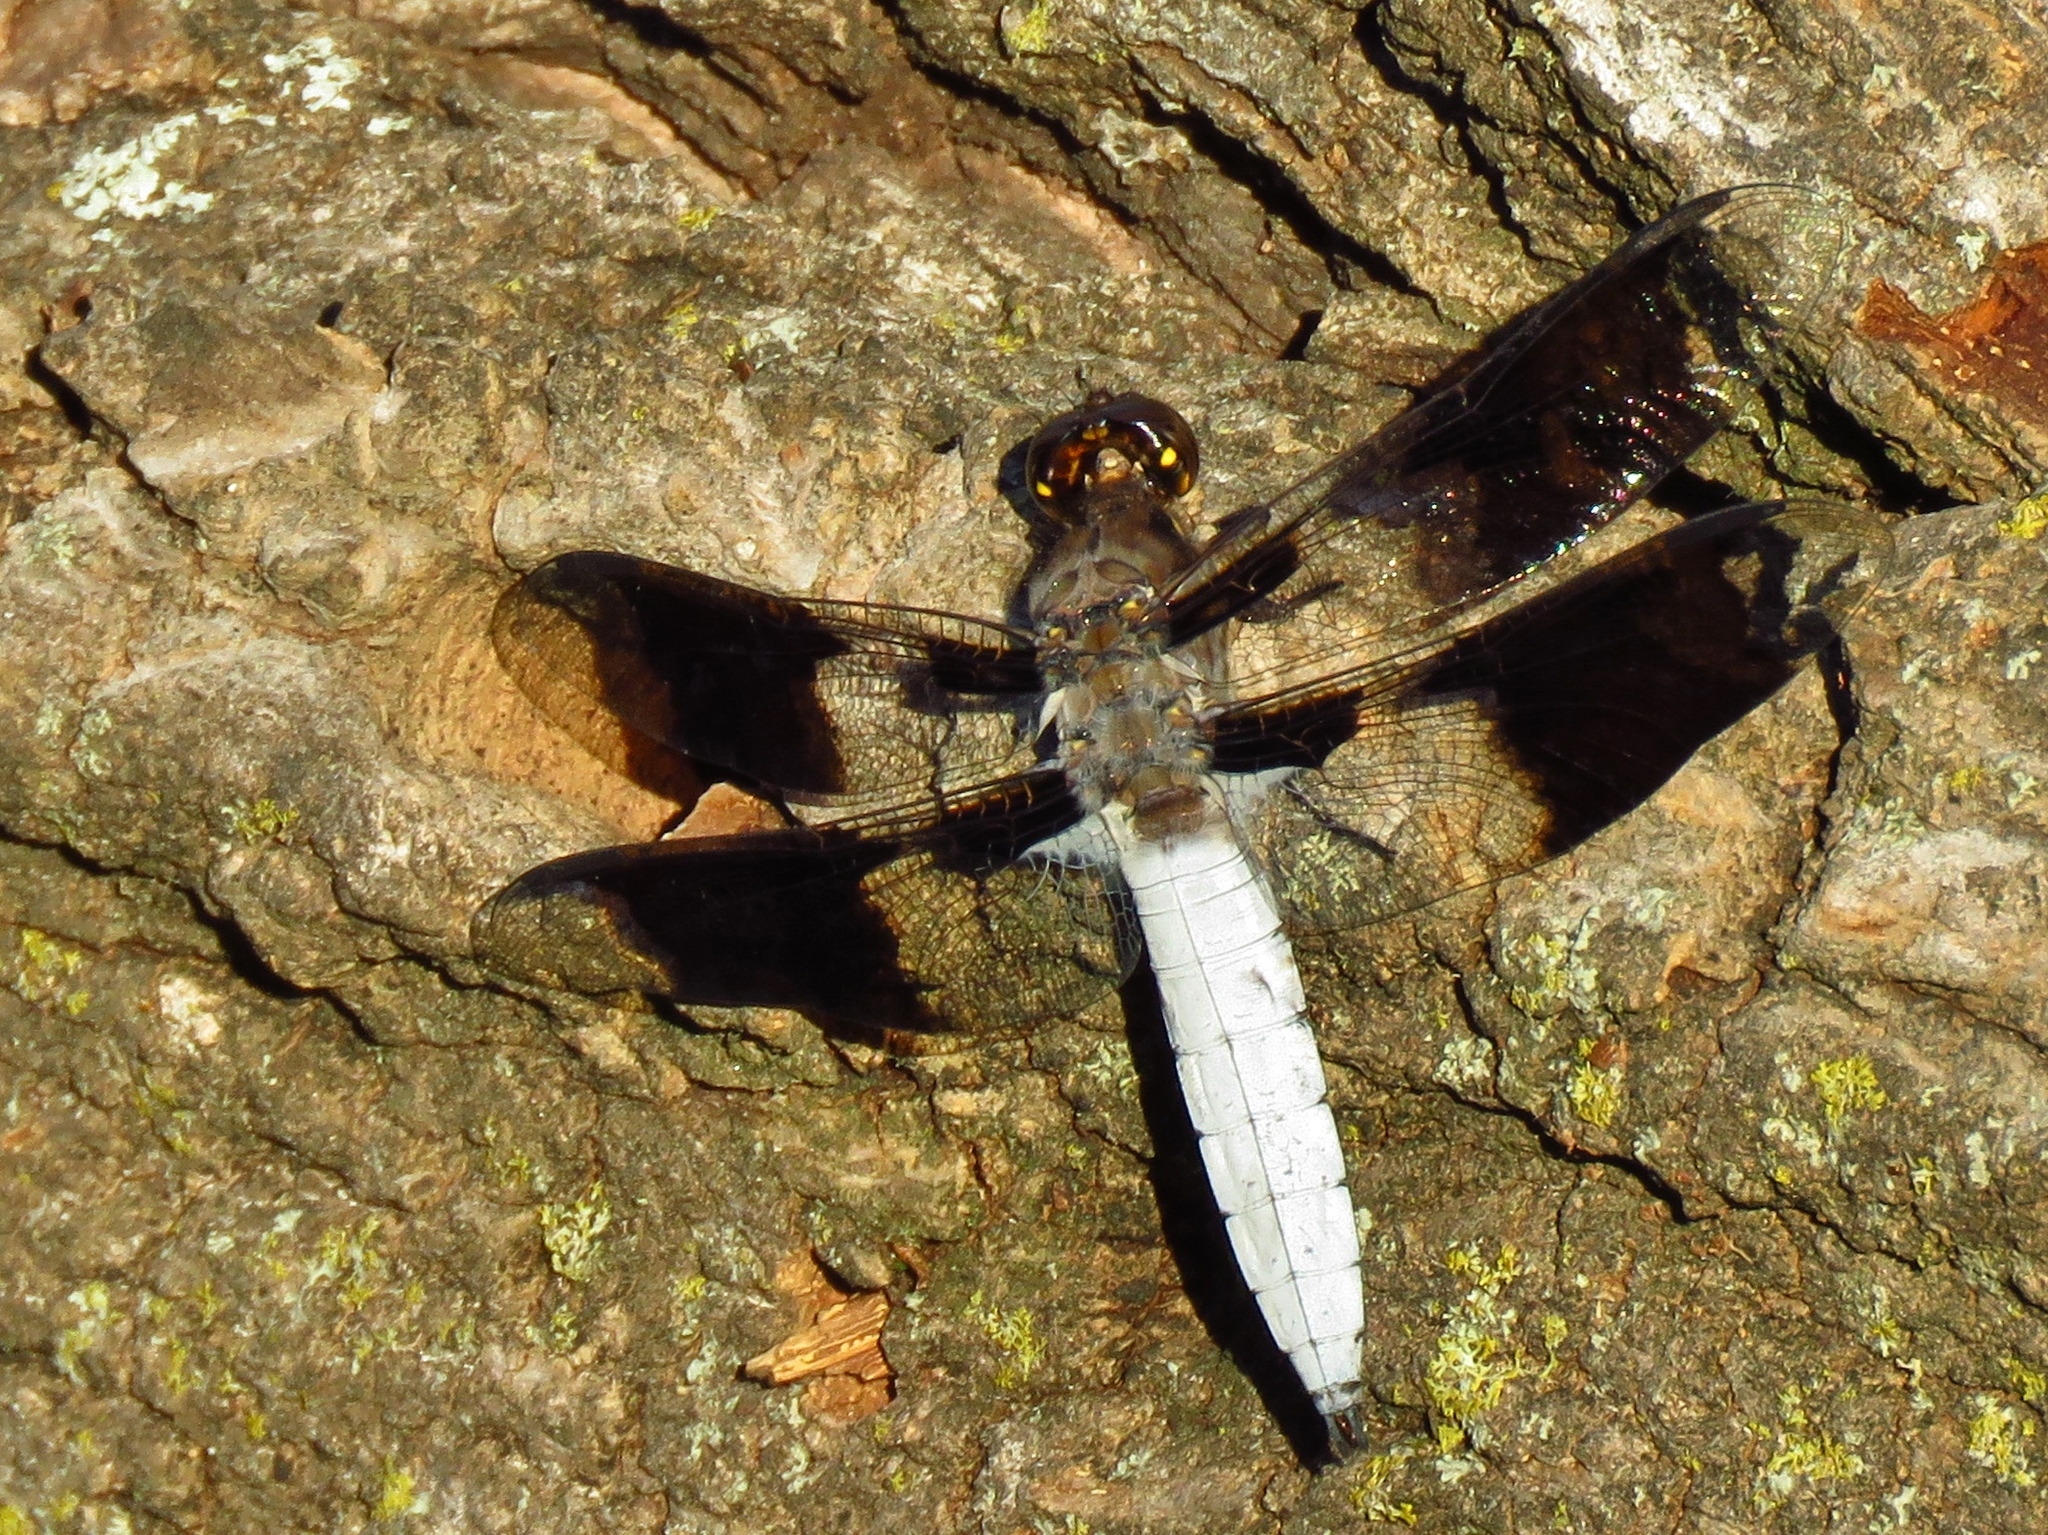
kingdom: Animalia
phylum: Arthropoda
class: Insecta
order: Odonata
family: Libellulidae
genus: Plathemis
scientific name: Plathemis lydia
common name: Common whitetail
